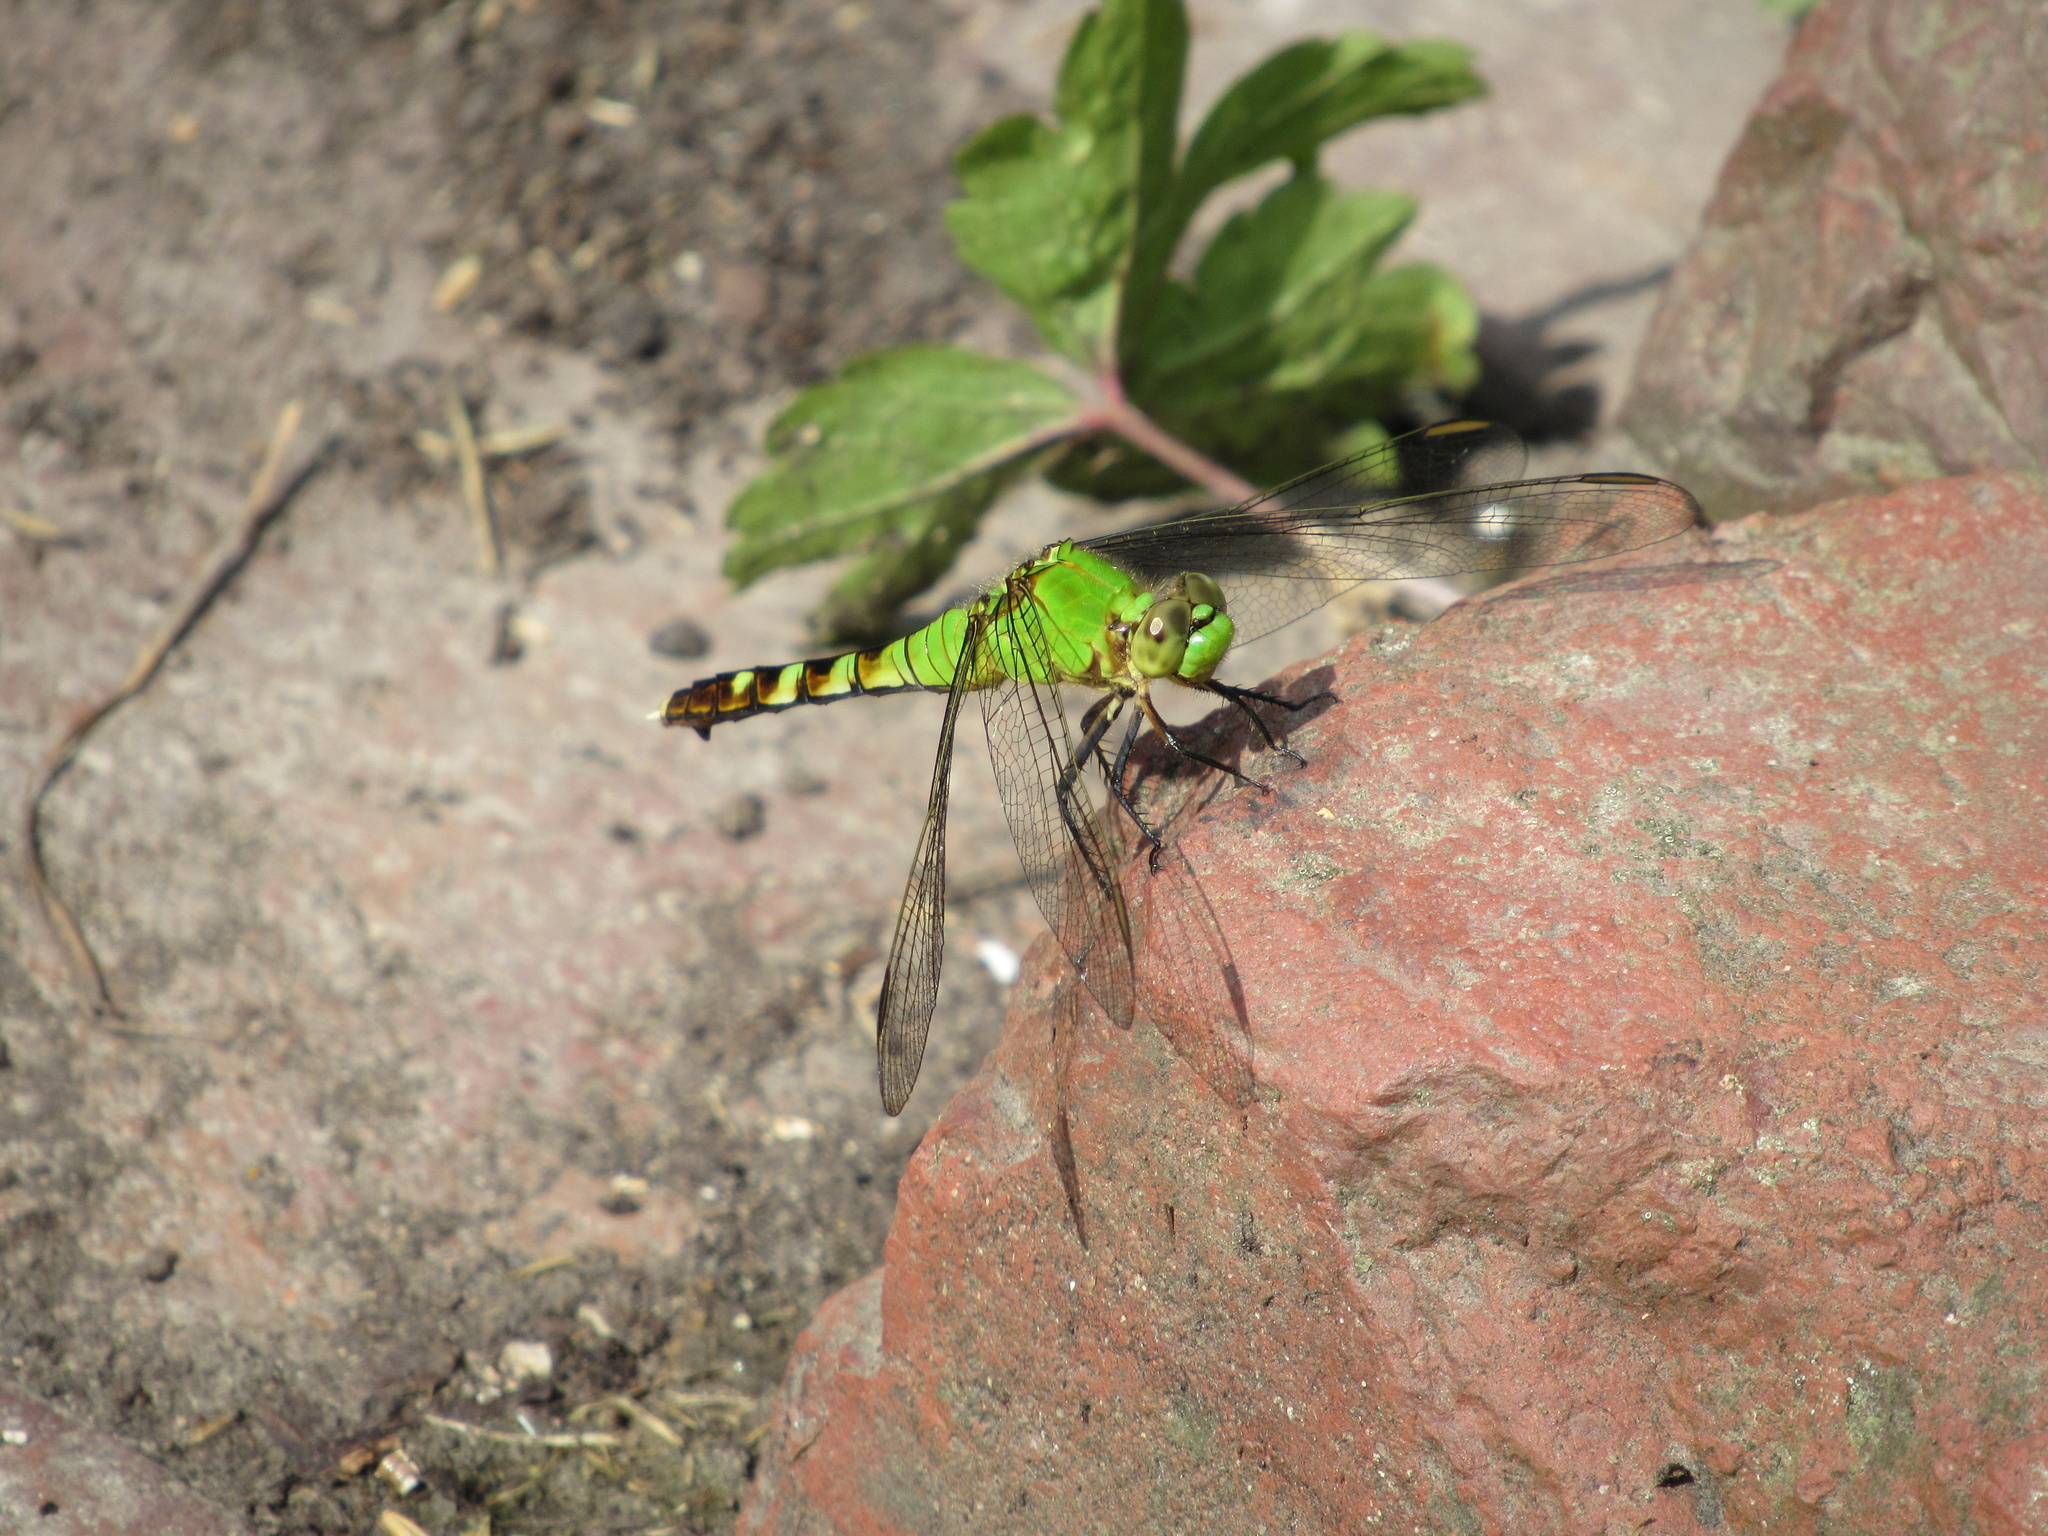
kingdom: Animalia
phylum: Arthropoda
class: Insecta
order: Odonata
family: Libellulidae
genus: Erythemis
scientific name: Erythemis simplicicollis
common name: Eastern pondhawk
